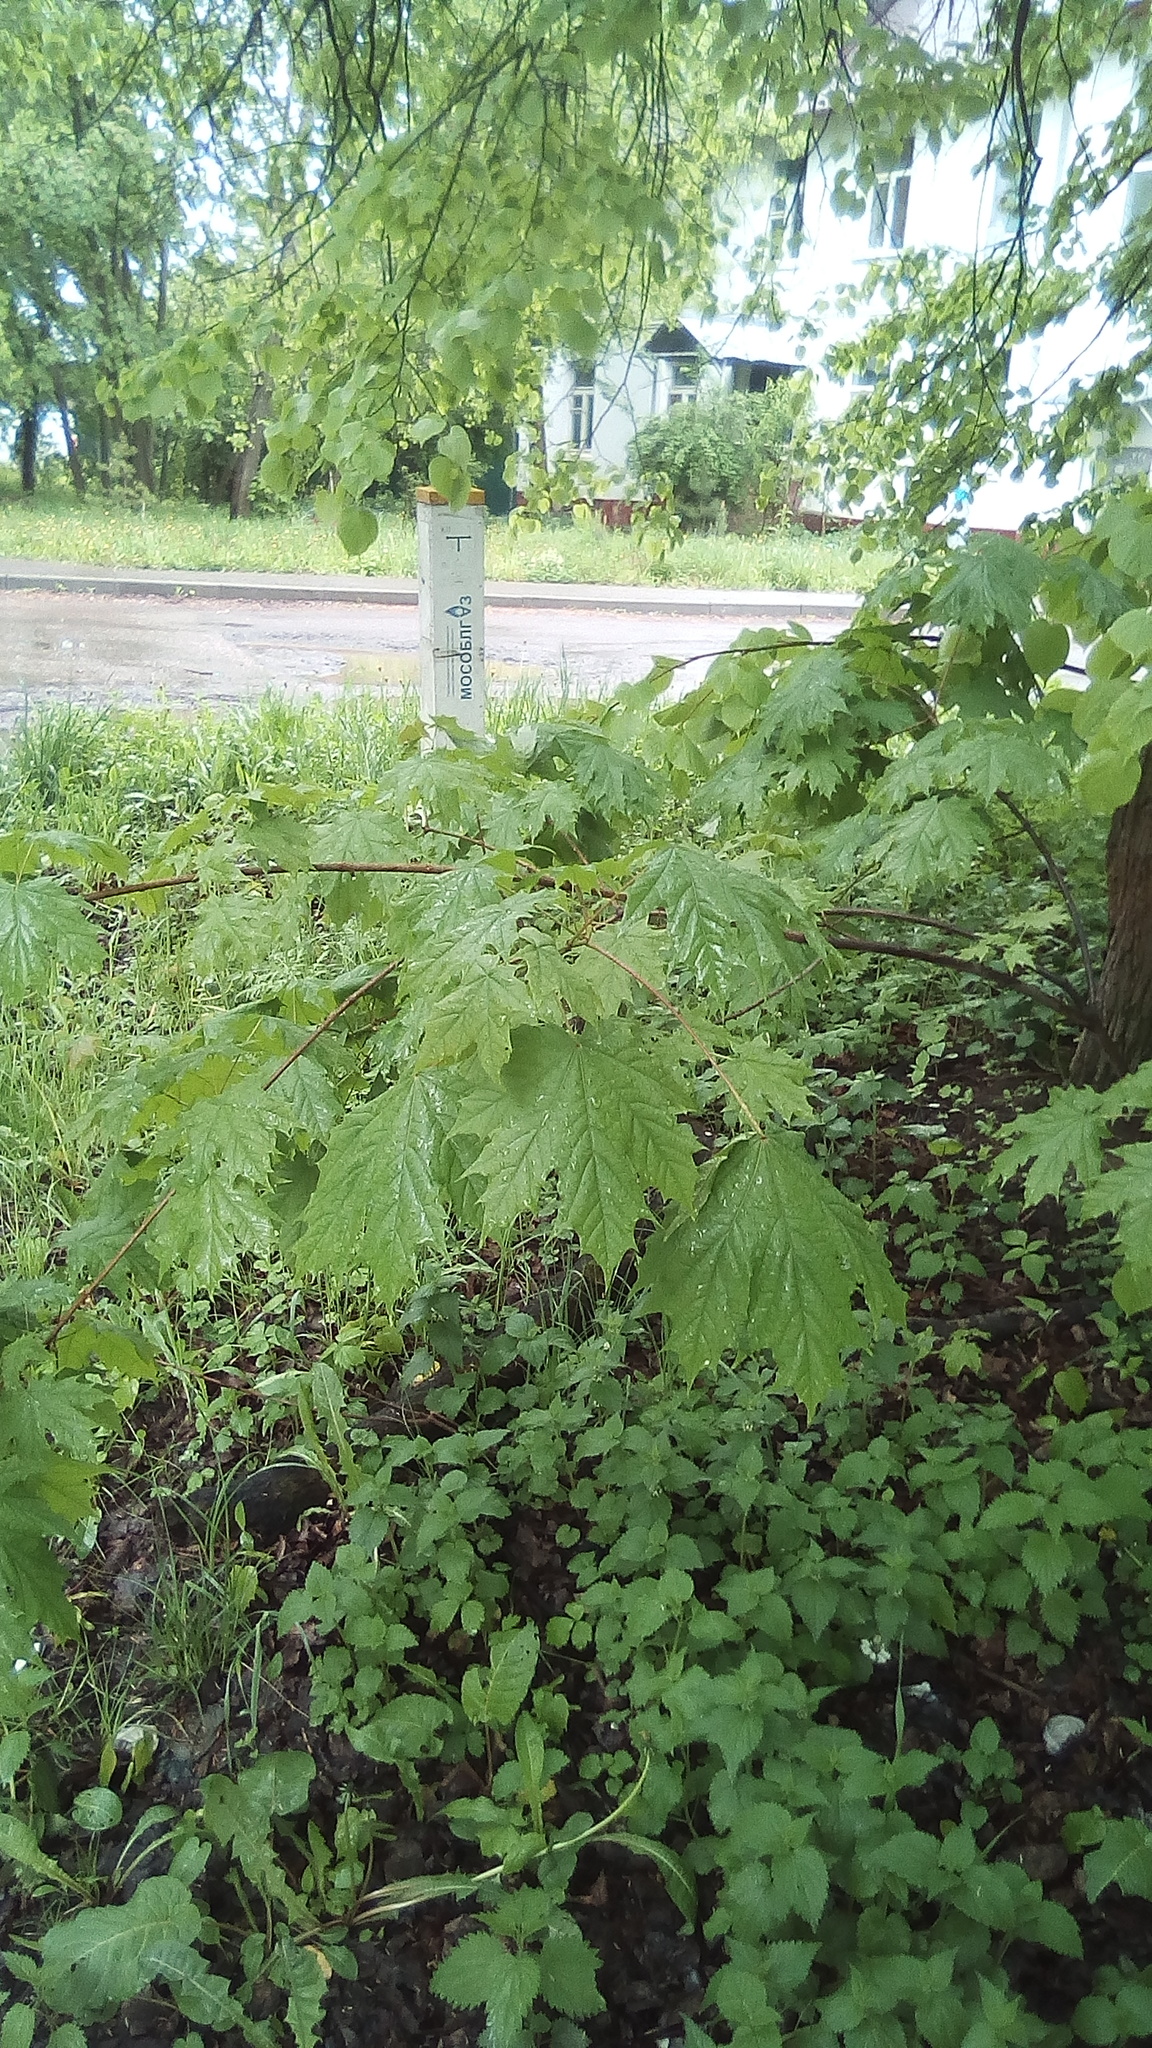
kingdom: Plantae
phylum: Tracheophyta
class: Magnoliopsida
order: Sapindales
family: Sapindaceae
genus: Acer
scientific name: Acer platanoides
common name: Norway maple
